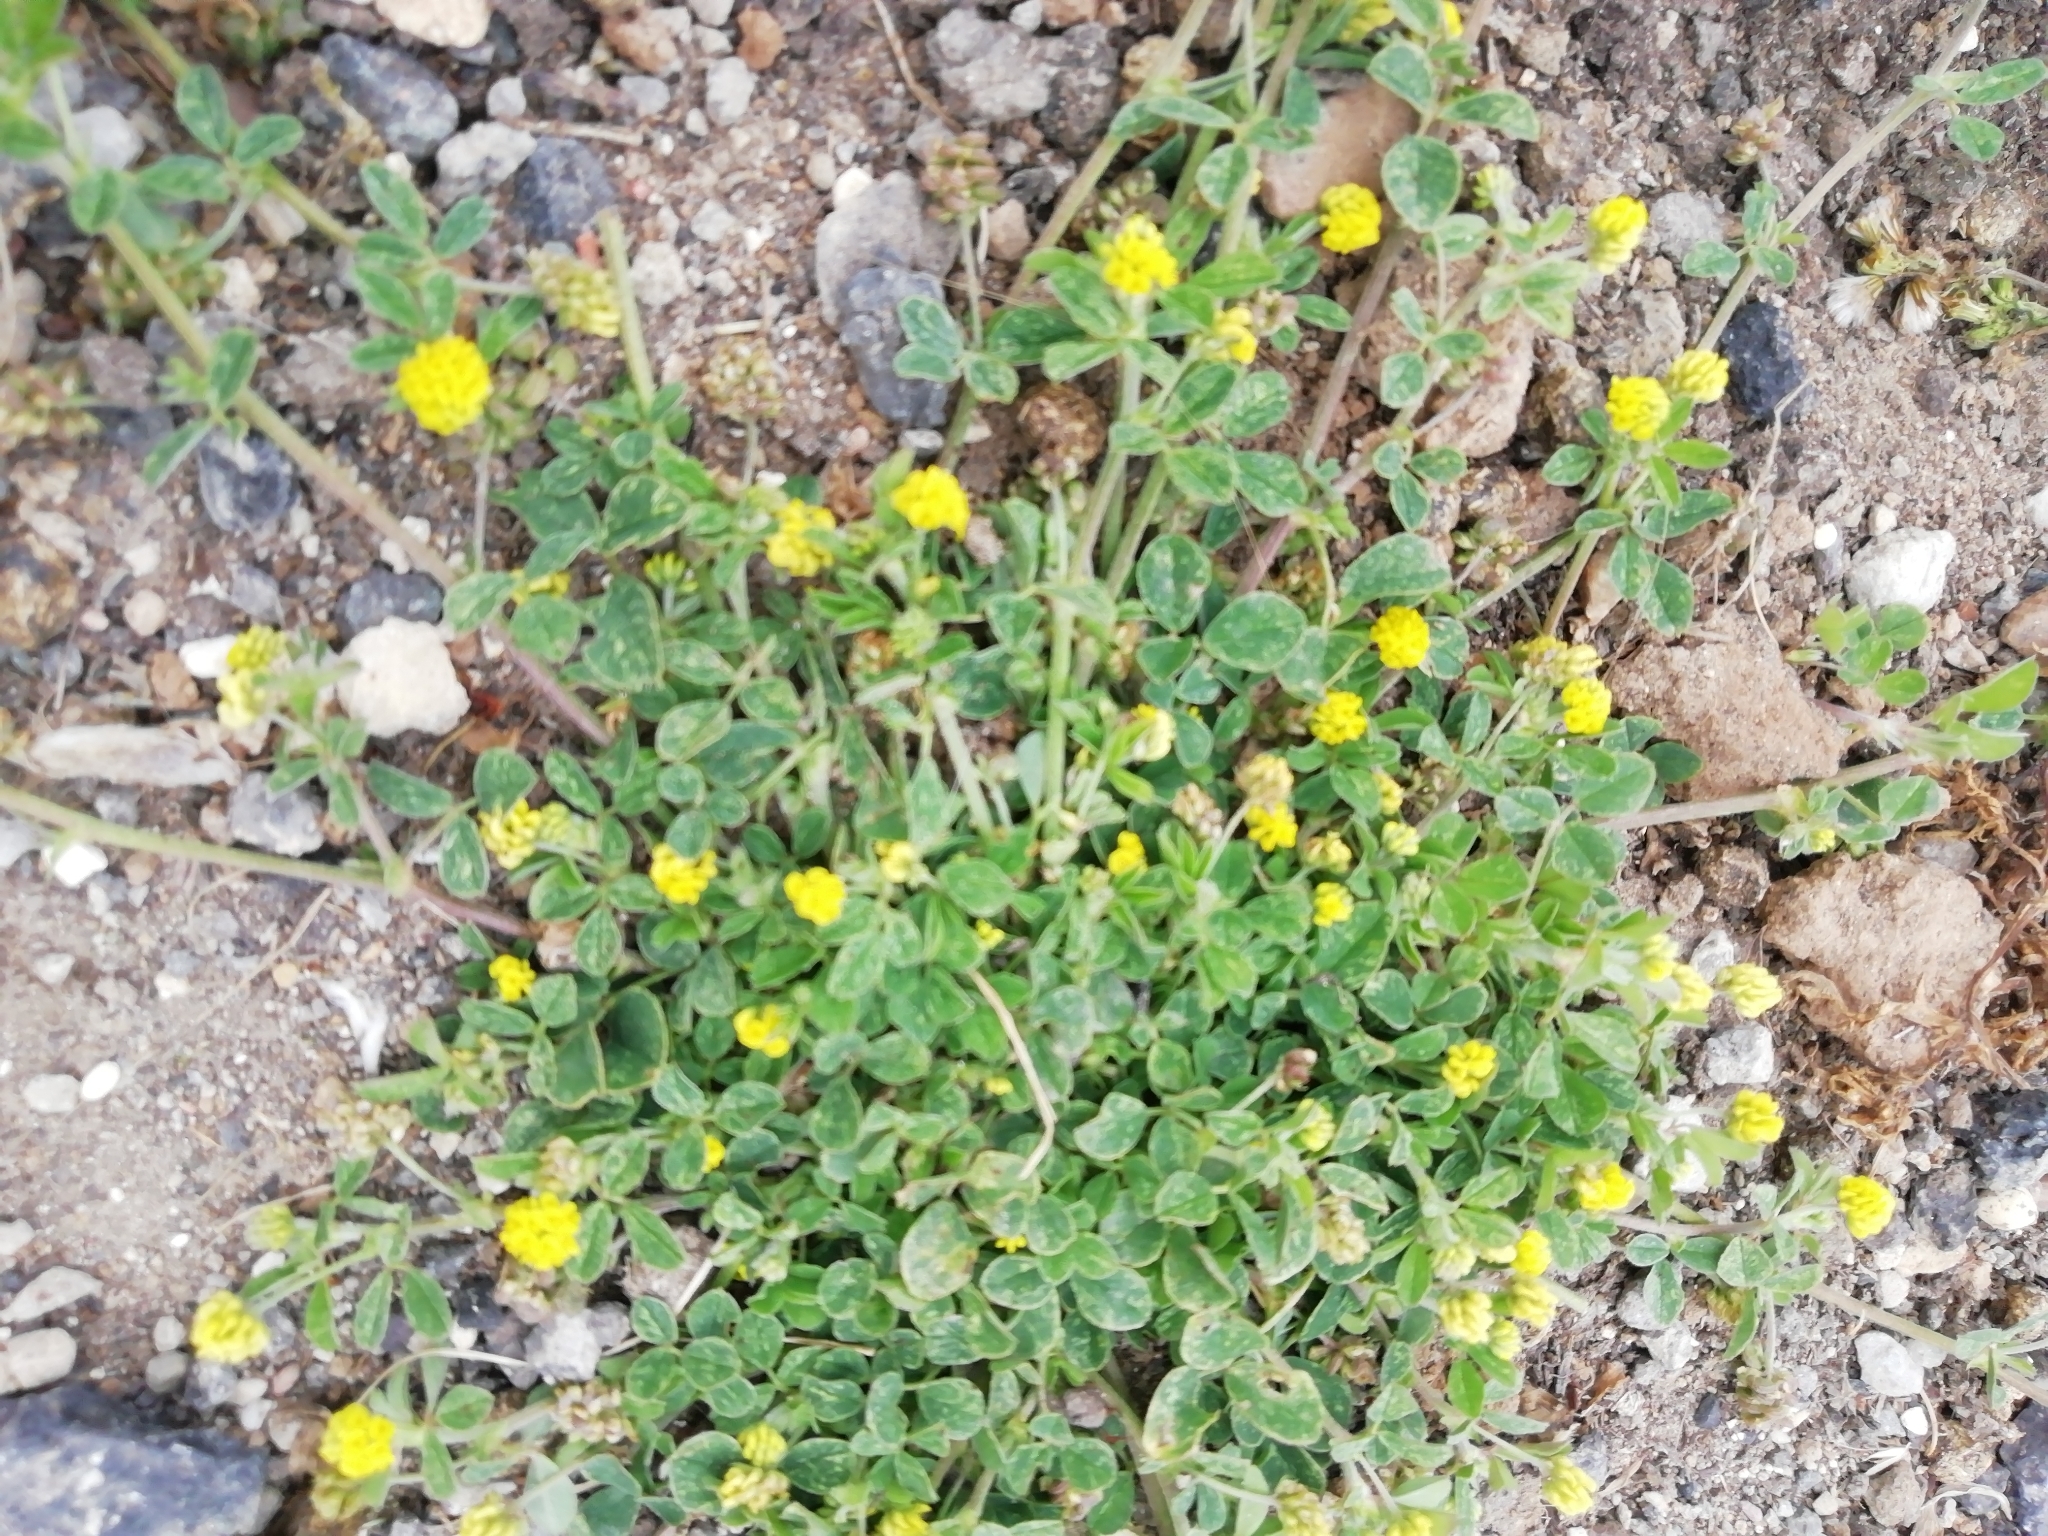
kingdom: Plantae
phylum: Tracheophyta
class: Magnoliopsida
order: Fabales
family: Fabaceae
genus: Medicago
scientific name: Medicago lupulina
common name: Black medick
